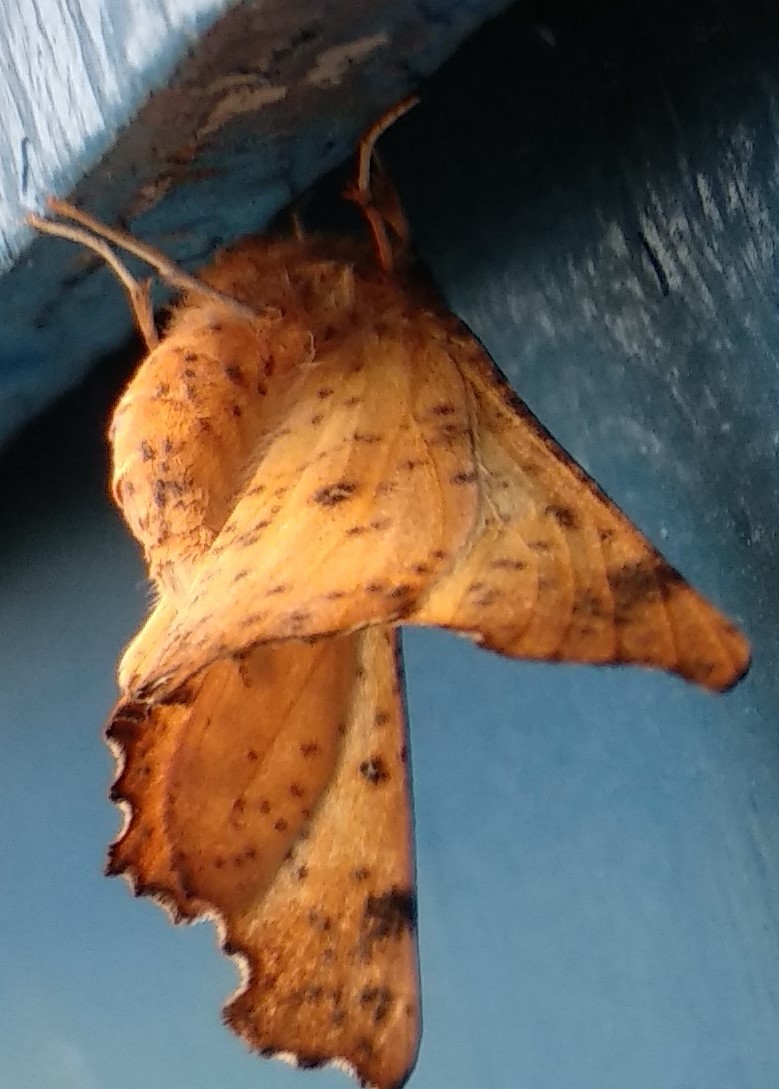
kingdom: Animalia
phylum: Arthropoda
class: Insecta
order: Lepidoptera
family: Geometridae
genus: Ennomos
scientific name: Ennomos magnaria
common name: Maple spanworm
